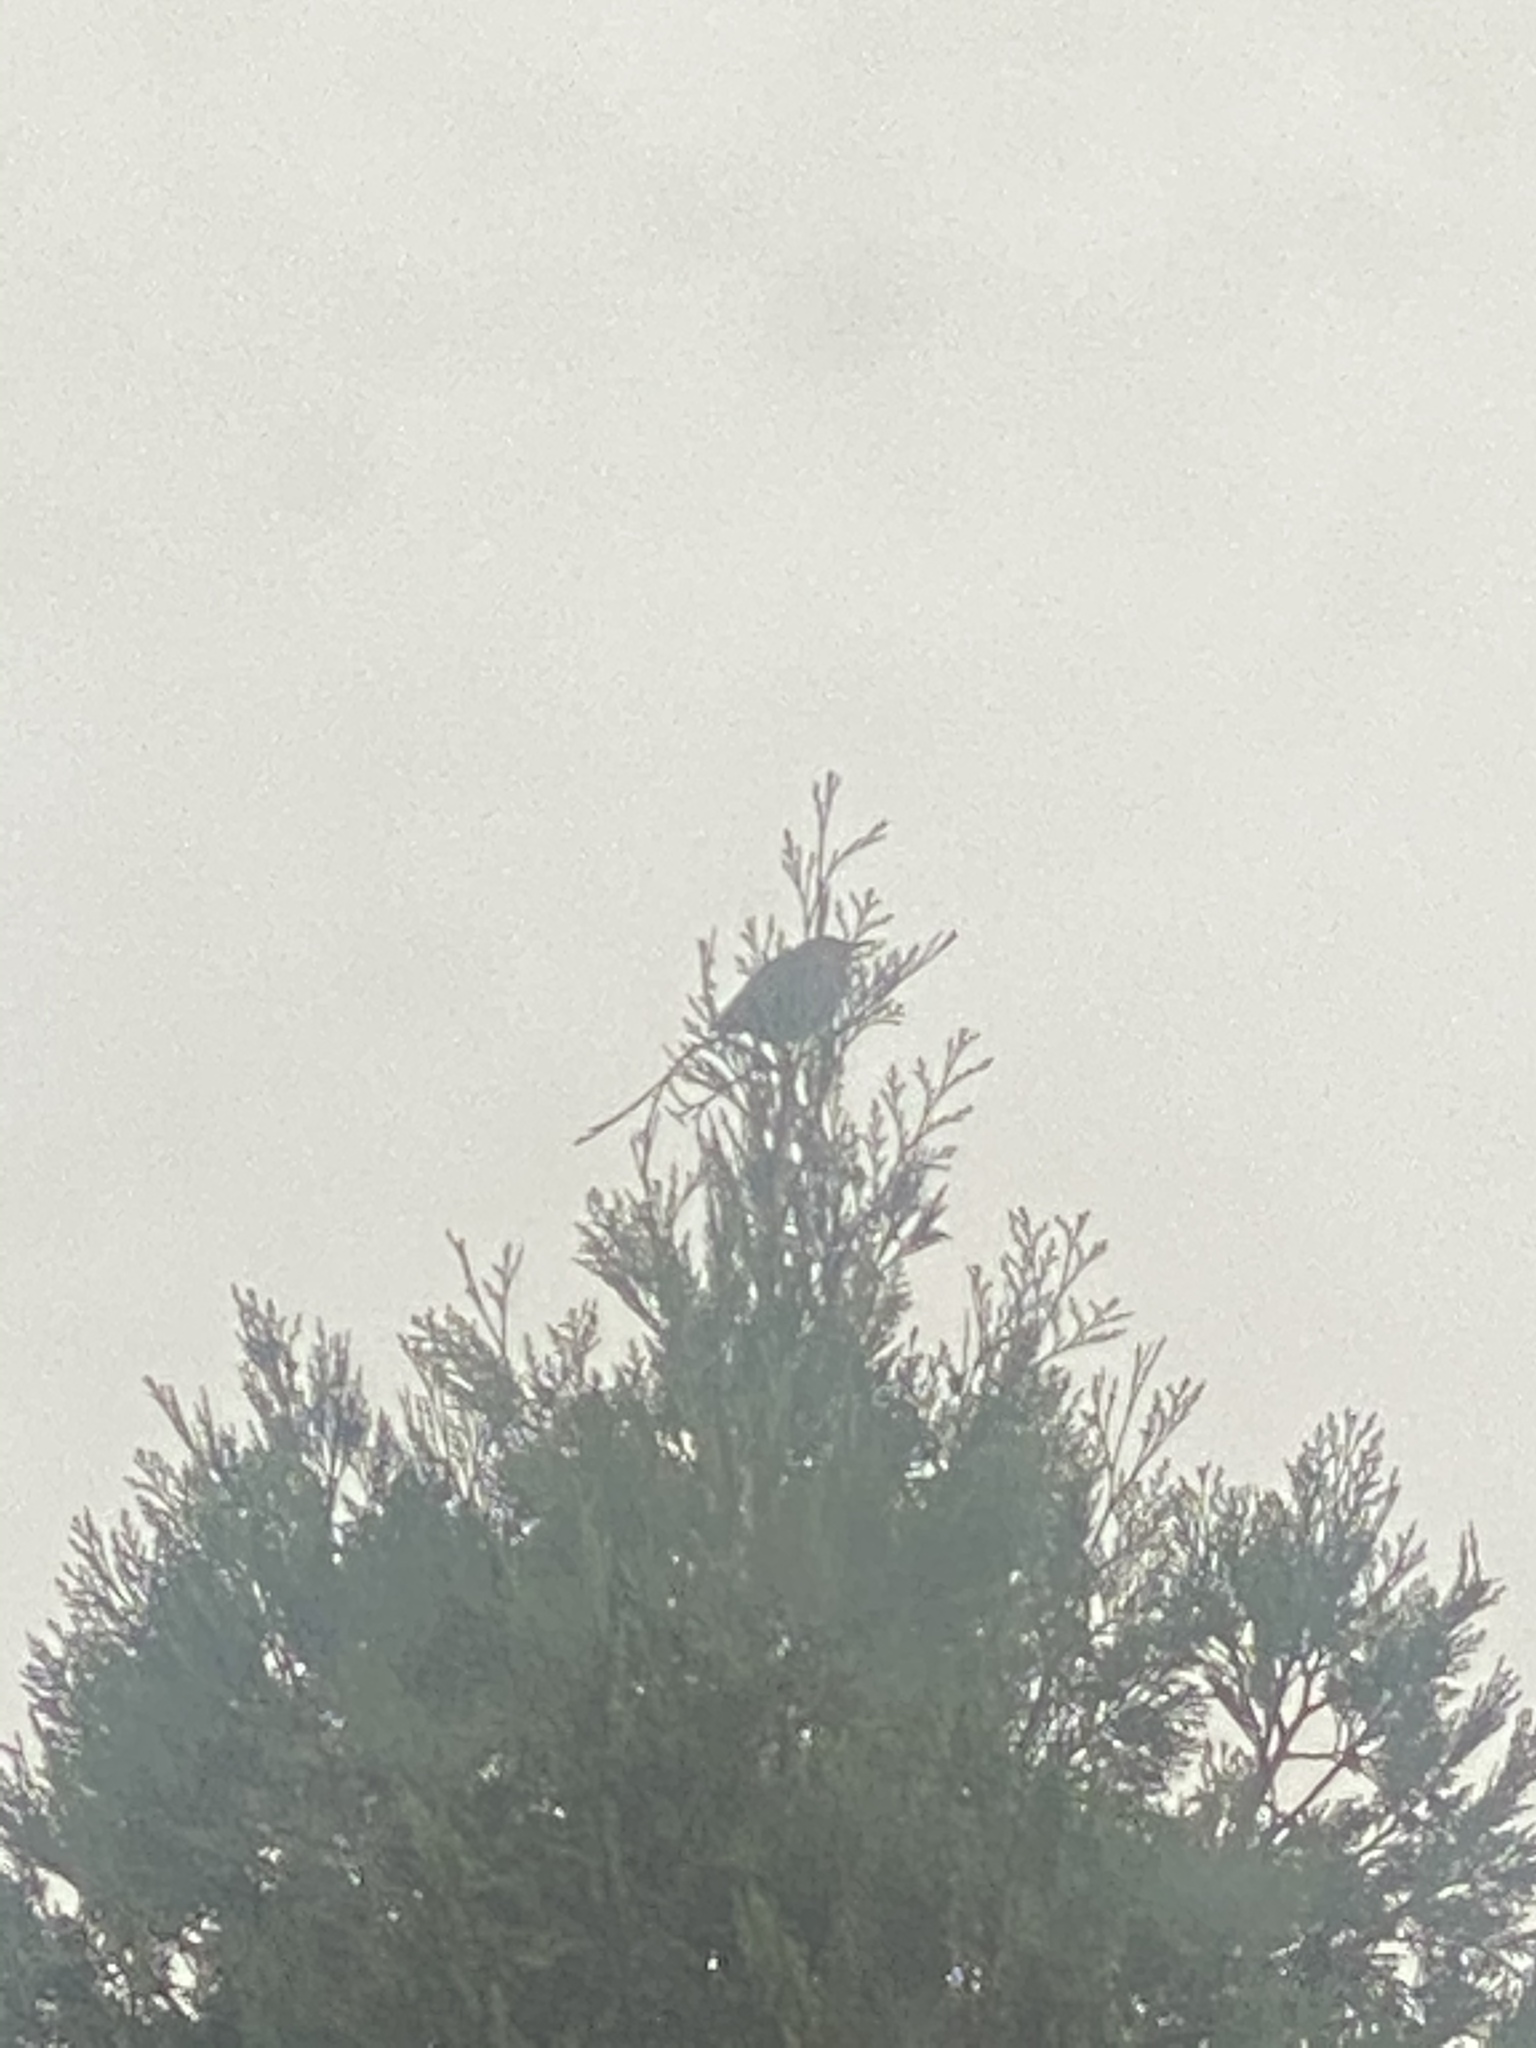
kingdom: Animalia
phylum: Chordata
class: Aves
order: Passeriformes
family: Sturnidae
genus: Sturnus
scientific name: Sturnus vulgaris
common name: Common starling
